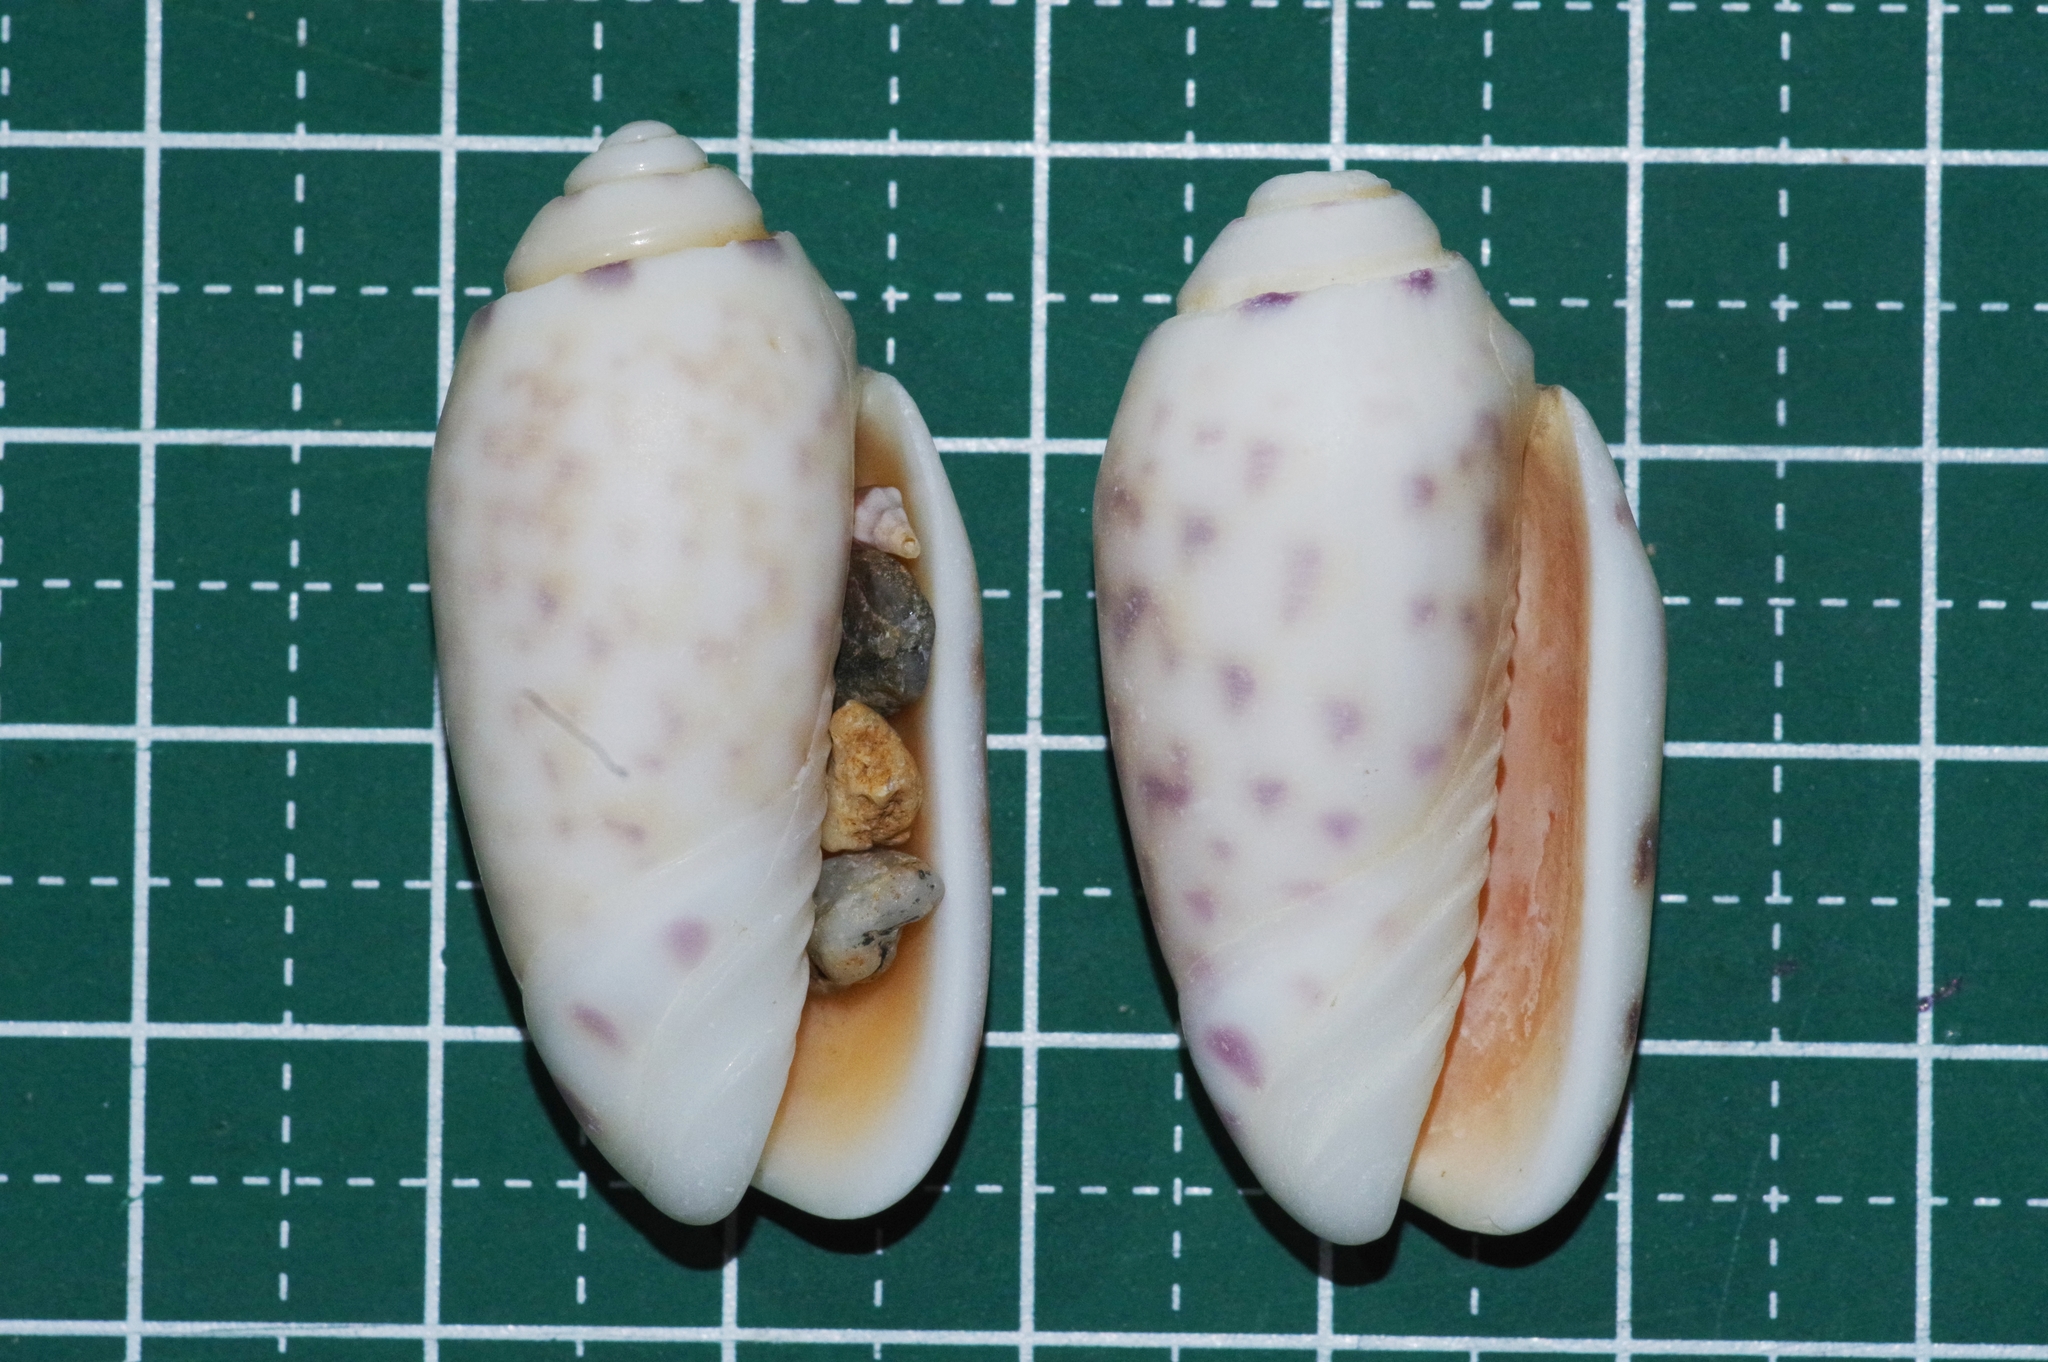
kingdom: Animalia
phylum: Mollusca
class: Gastropoda
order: Neogastropoda
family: Olividae
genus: Oliva
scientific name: Oliva amethystina
